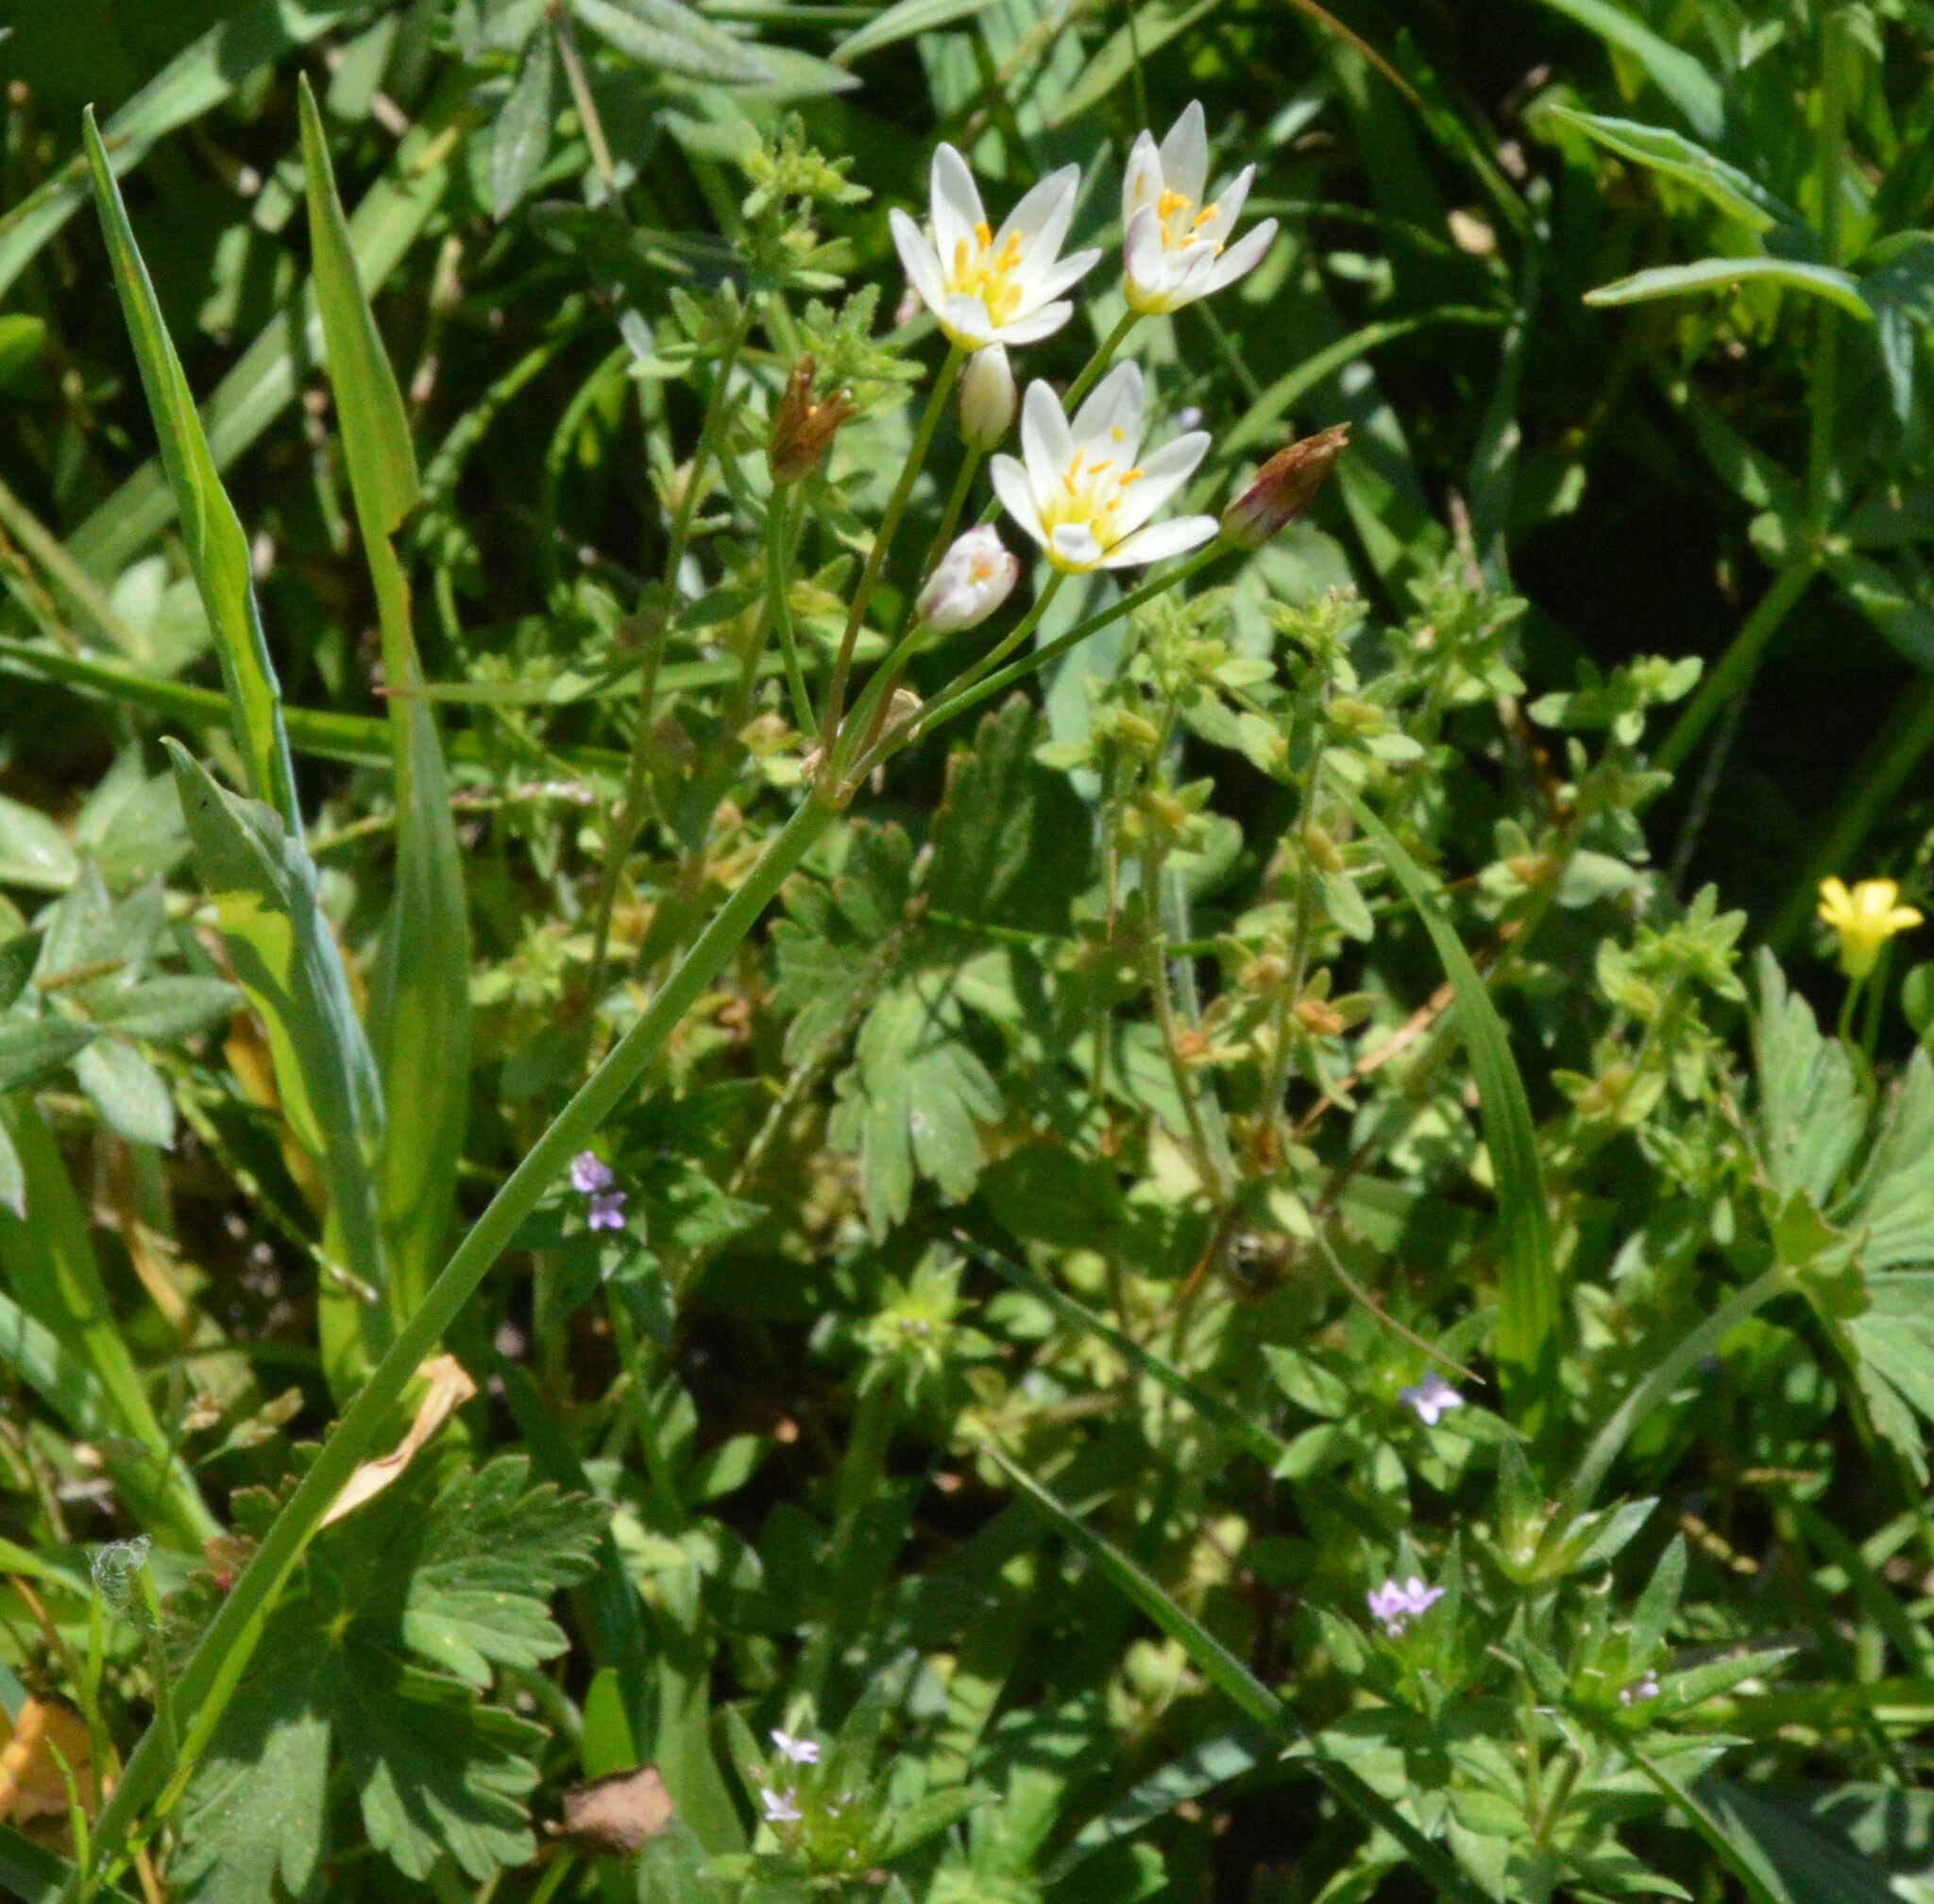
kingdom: Plantae
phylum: Tracheophyta
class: Liliopsida
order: Asparagales
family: Amaryllidaceae
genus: Nothoscordum
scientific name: Nothoscordum bivalve
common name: Crow-poison
